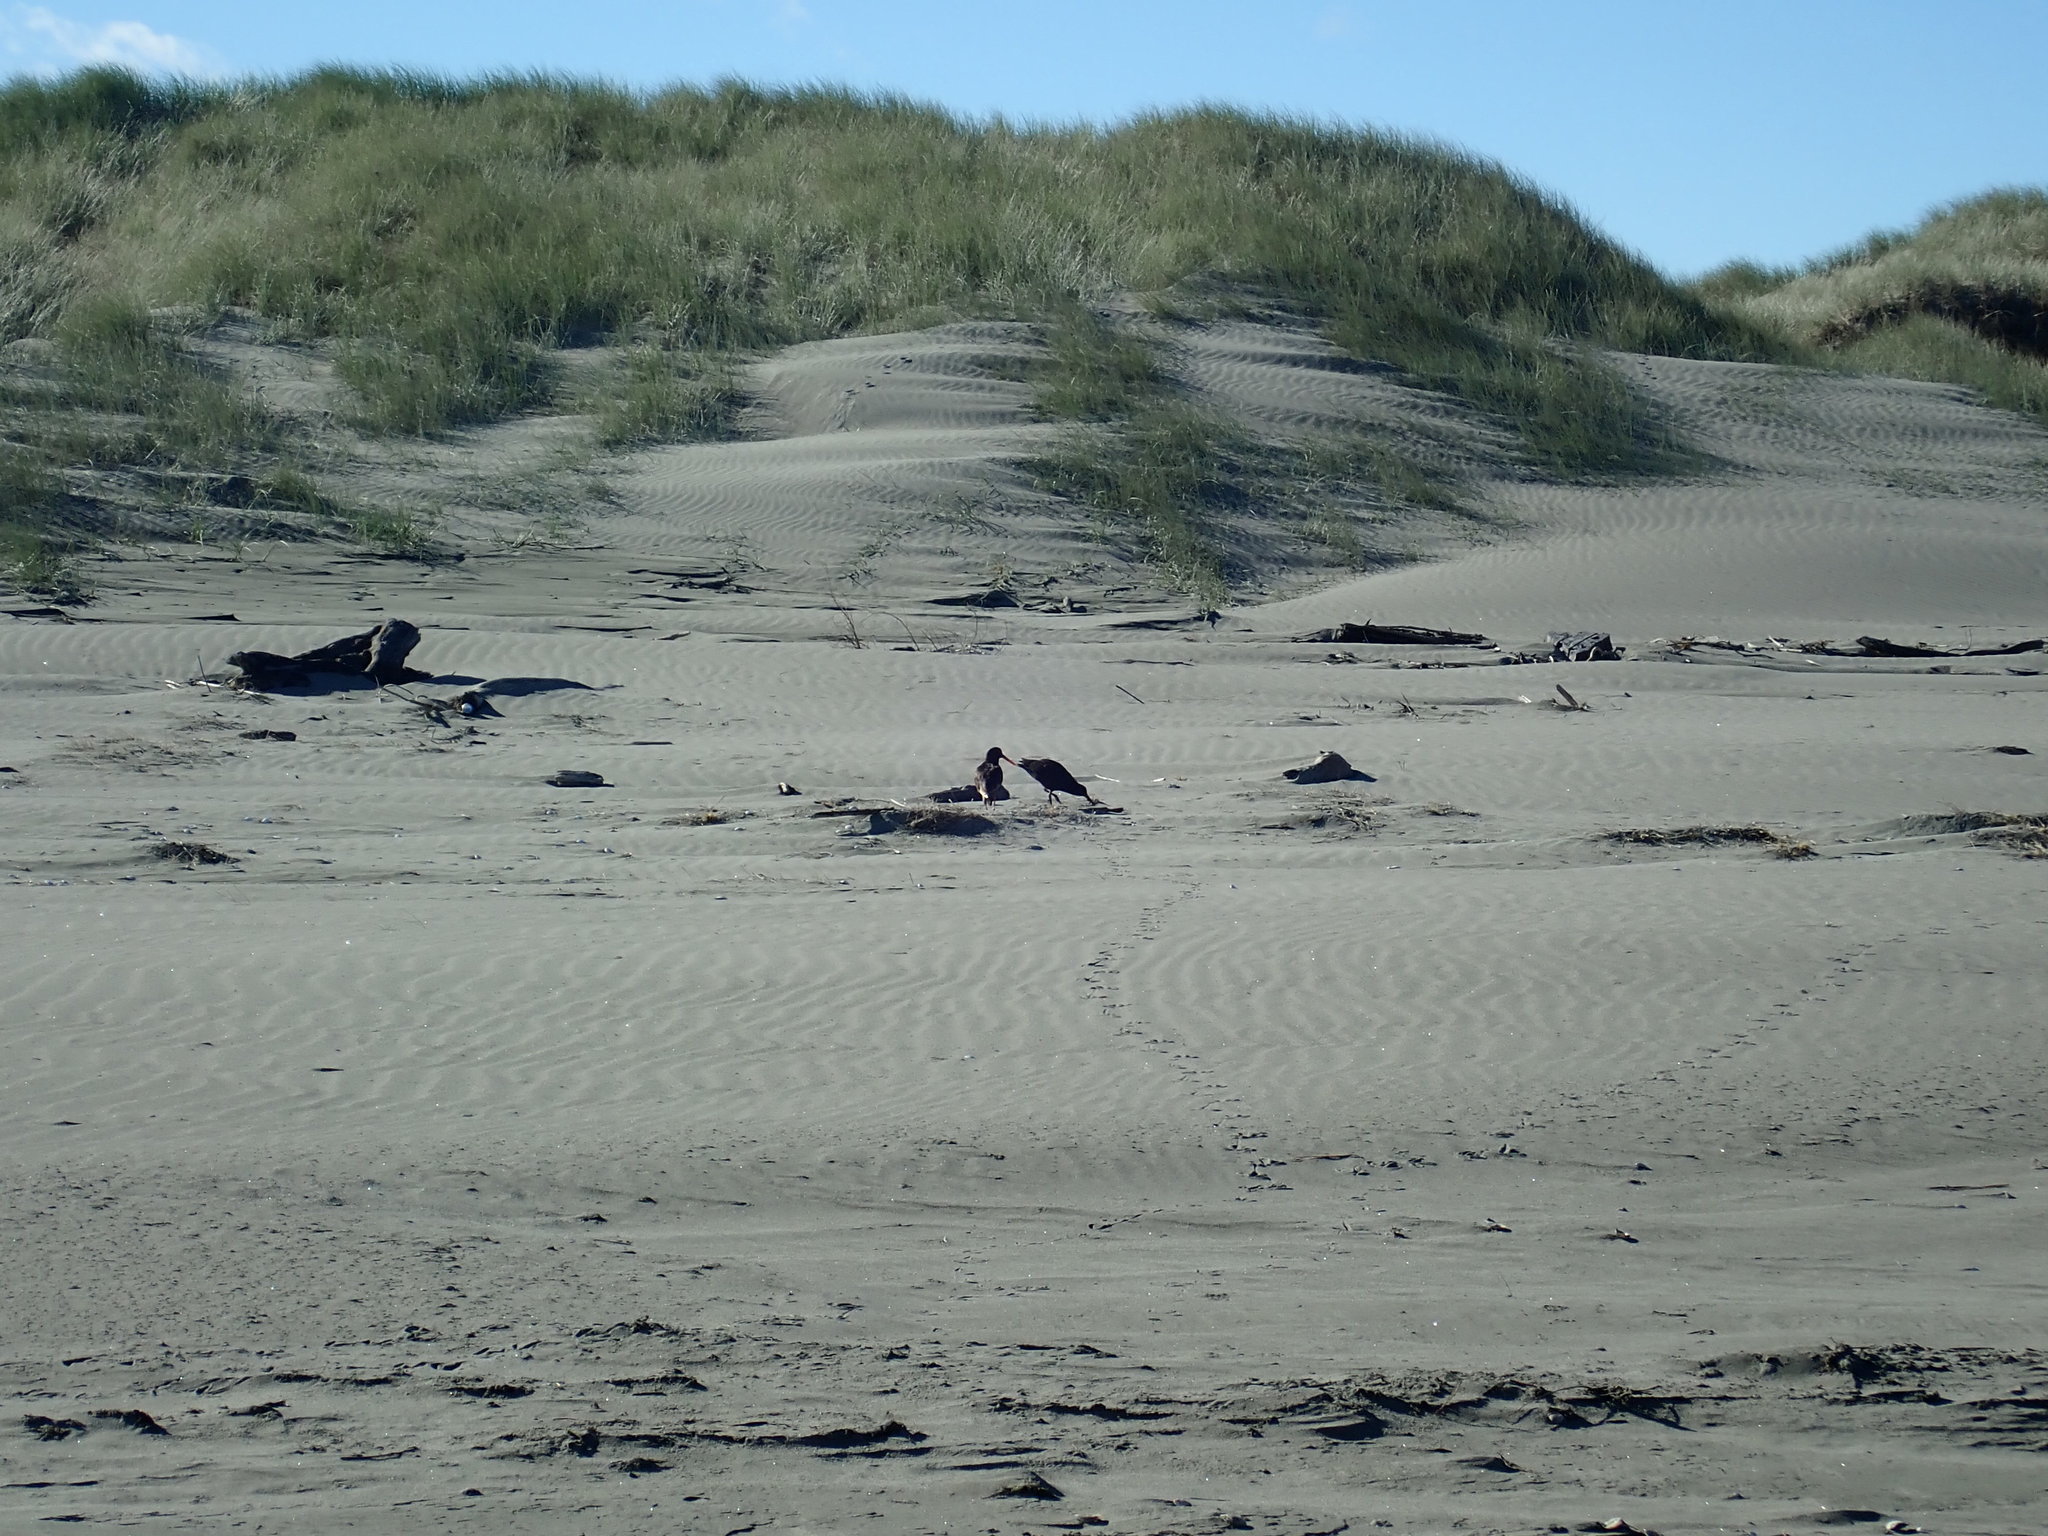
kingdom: Animalia
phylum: Chordata
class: Aves
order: Charadriiformes
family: Haematopodidae
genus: Haematopus
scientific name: Haematopus unicolor
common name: Variable oystercatcher
